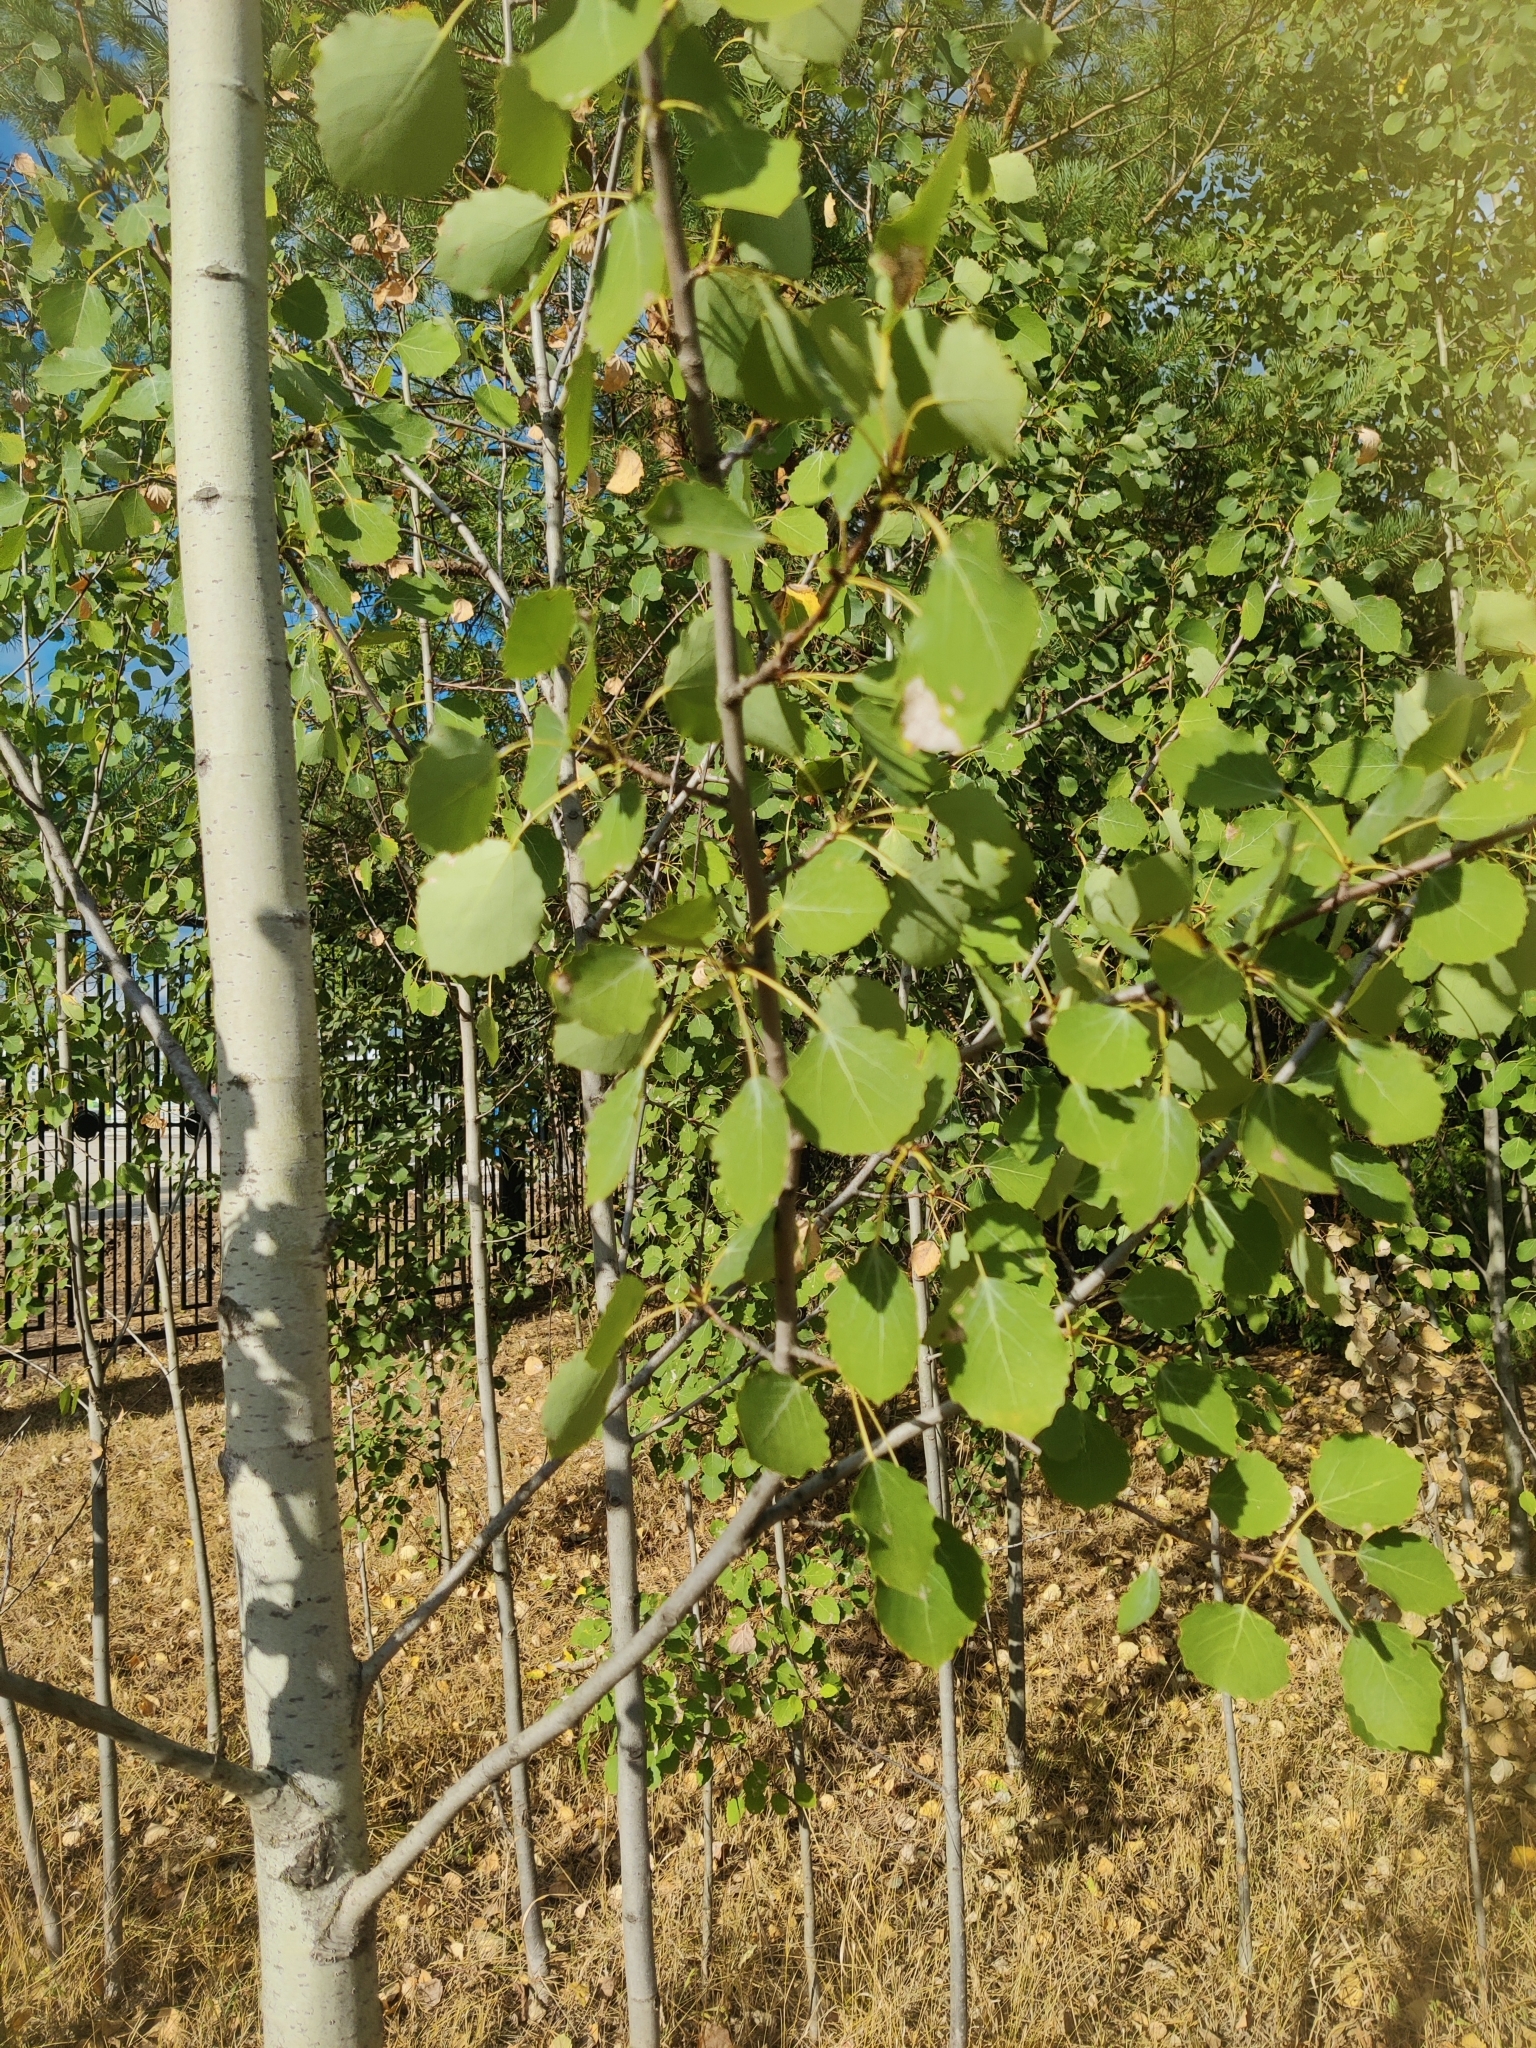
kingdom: Plantae
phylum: Tracheophyta
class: Magnoliopsida
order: Malpighiales
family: Salicaceae
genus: Populus
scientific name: Populus tremula
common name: European aspen
